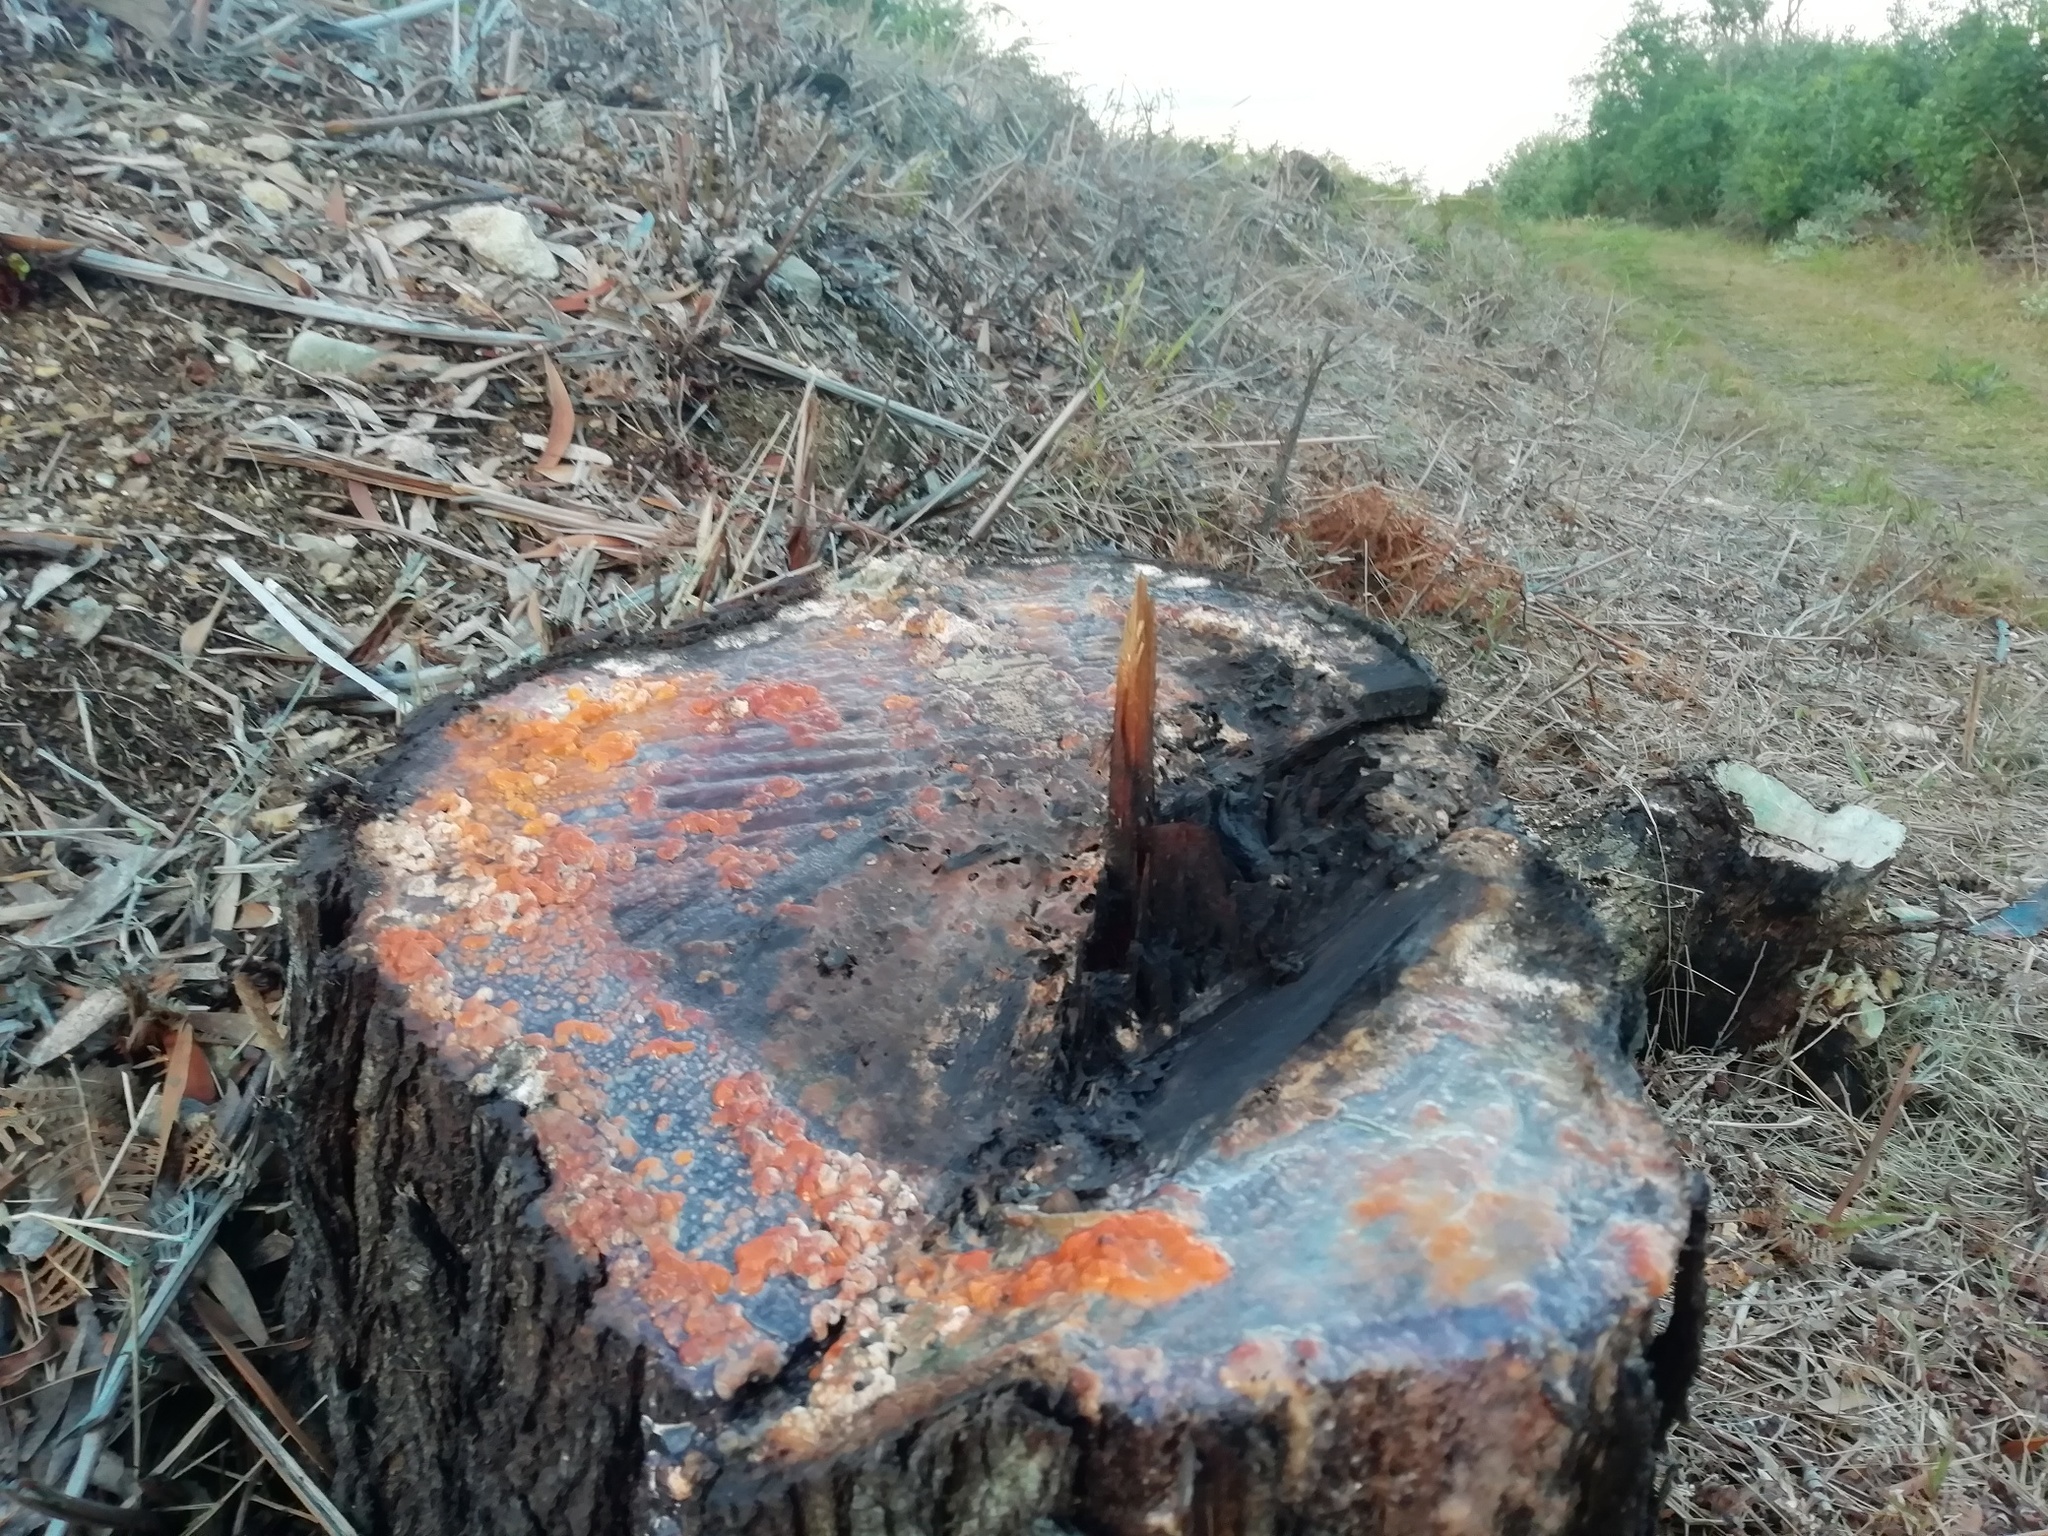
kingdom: Fungi
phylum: Ascomycota
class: Sordariomycetes
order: Hypocreales
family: Nectriaceae
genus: Fusicolla
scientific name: Fusicolla merismoides
